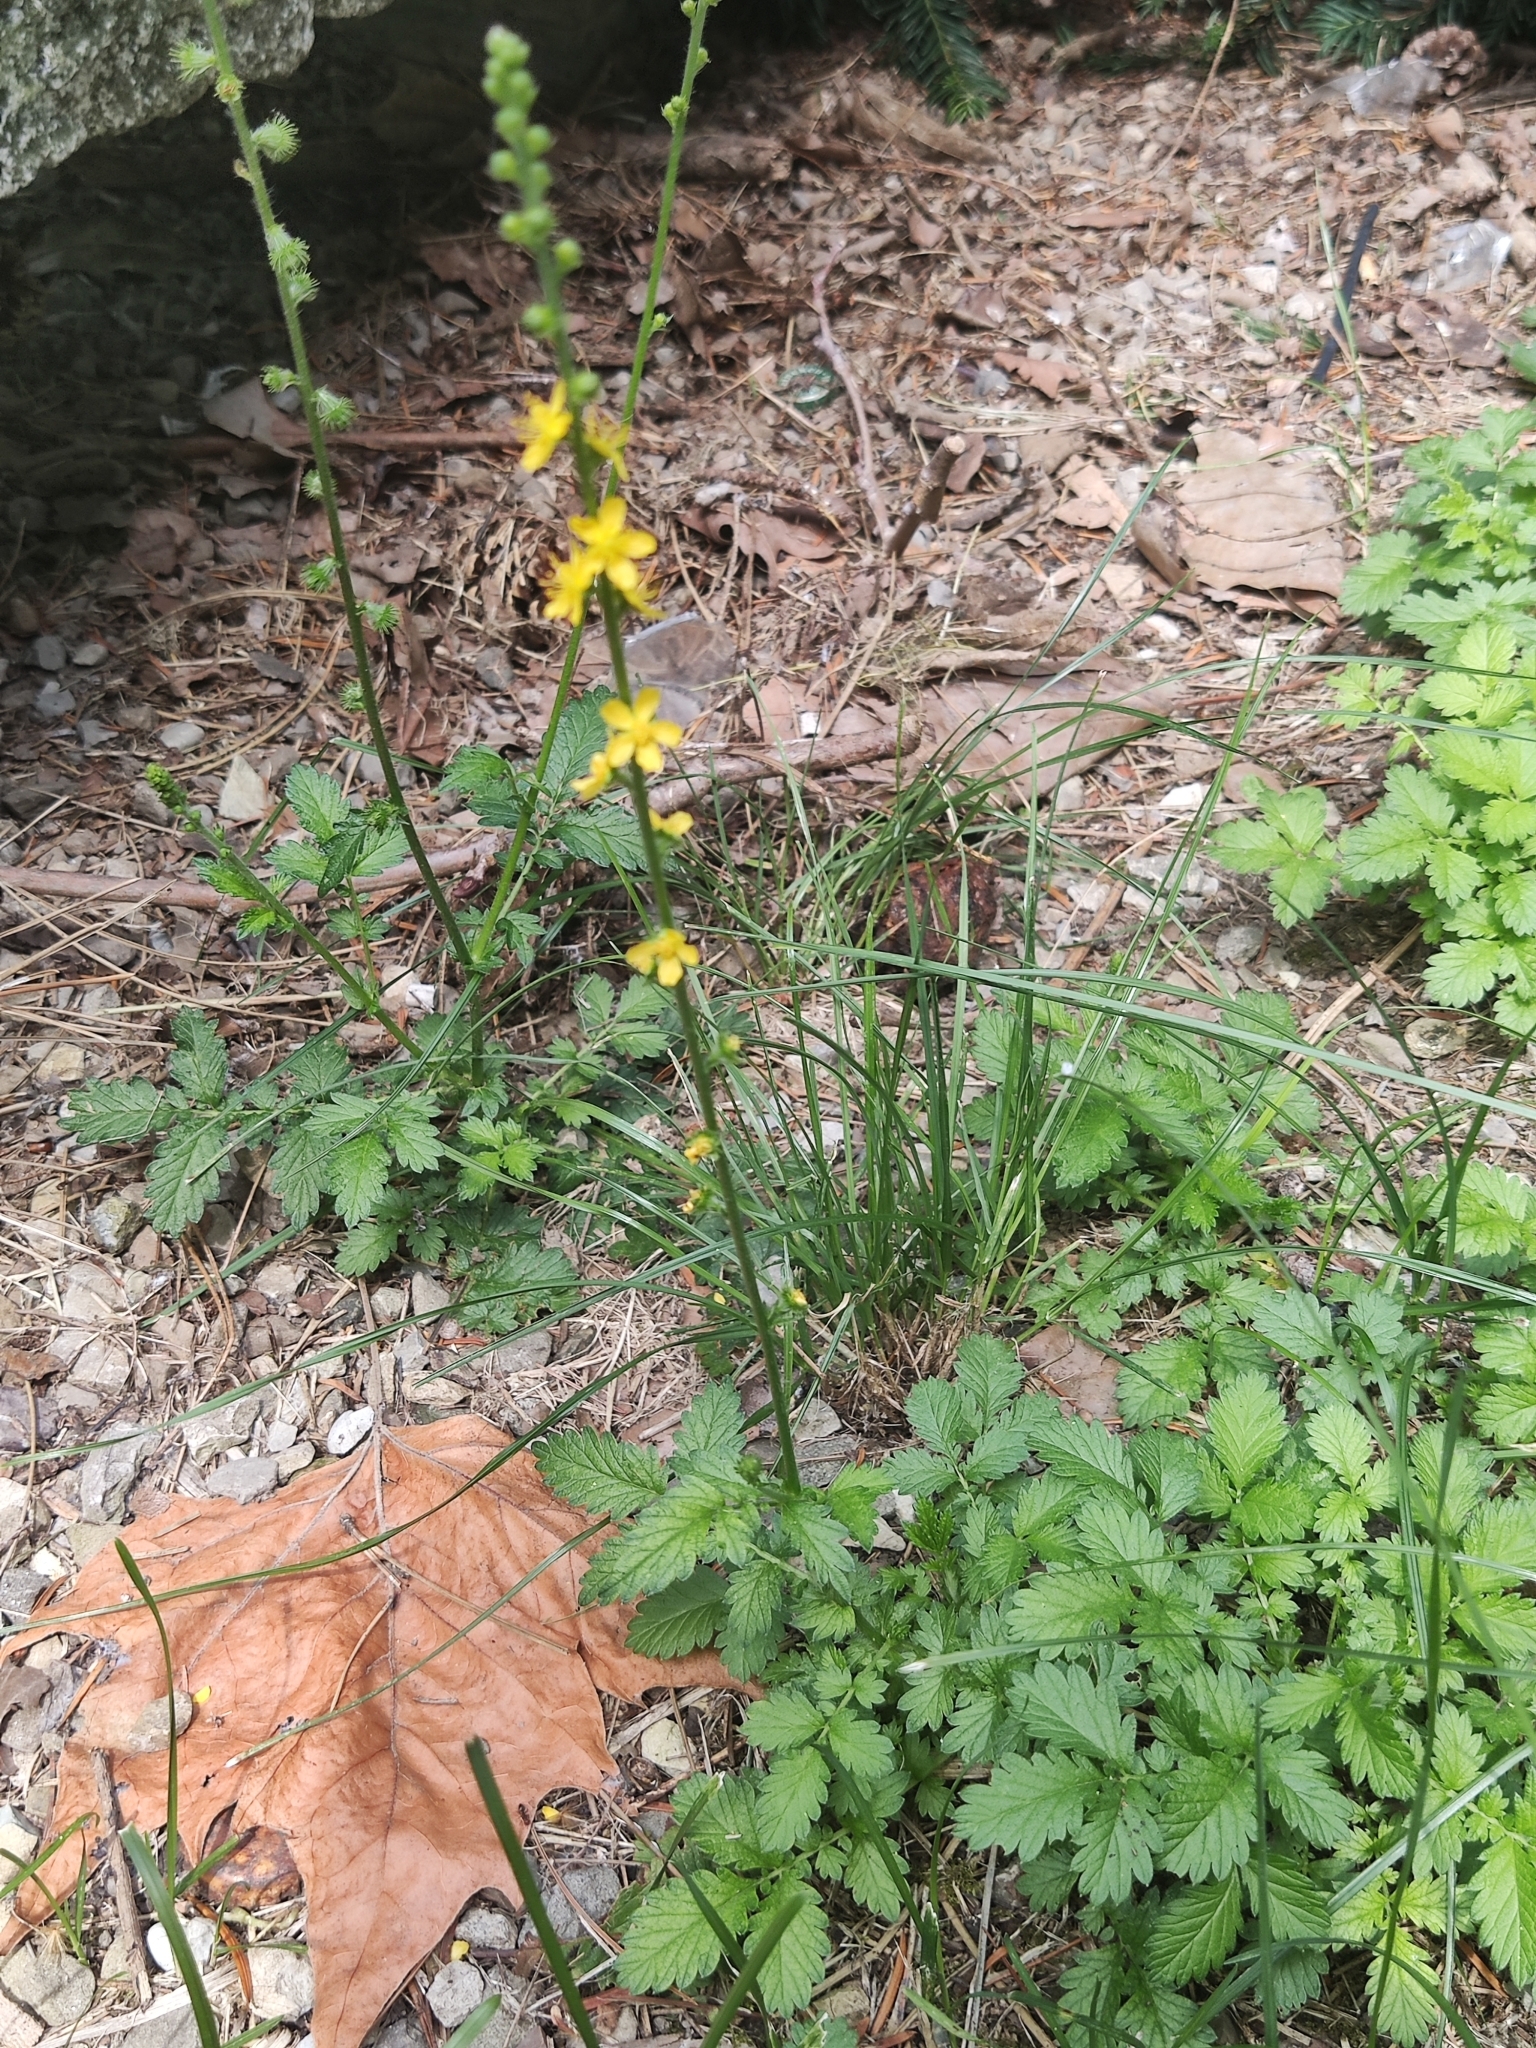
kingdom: Plantae
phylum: Tracheophyta
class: Magnoliopsida
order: Rosales
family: Rosaceae
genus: Agrimonia
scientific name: Agrimonia eupatoria
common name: Agrimony
